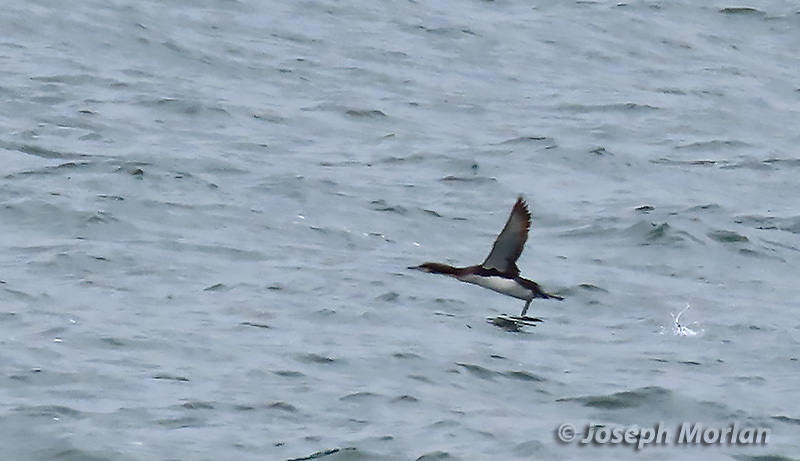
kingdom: Animalia
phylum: Chordata
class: Aves
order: Gaviiformes
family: Gaviidae
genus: Gavia
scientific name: Gavia pacifica
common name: Pacific loon
